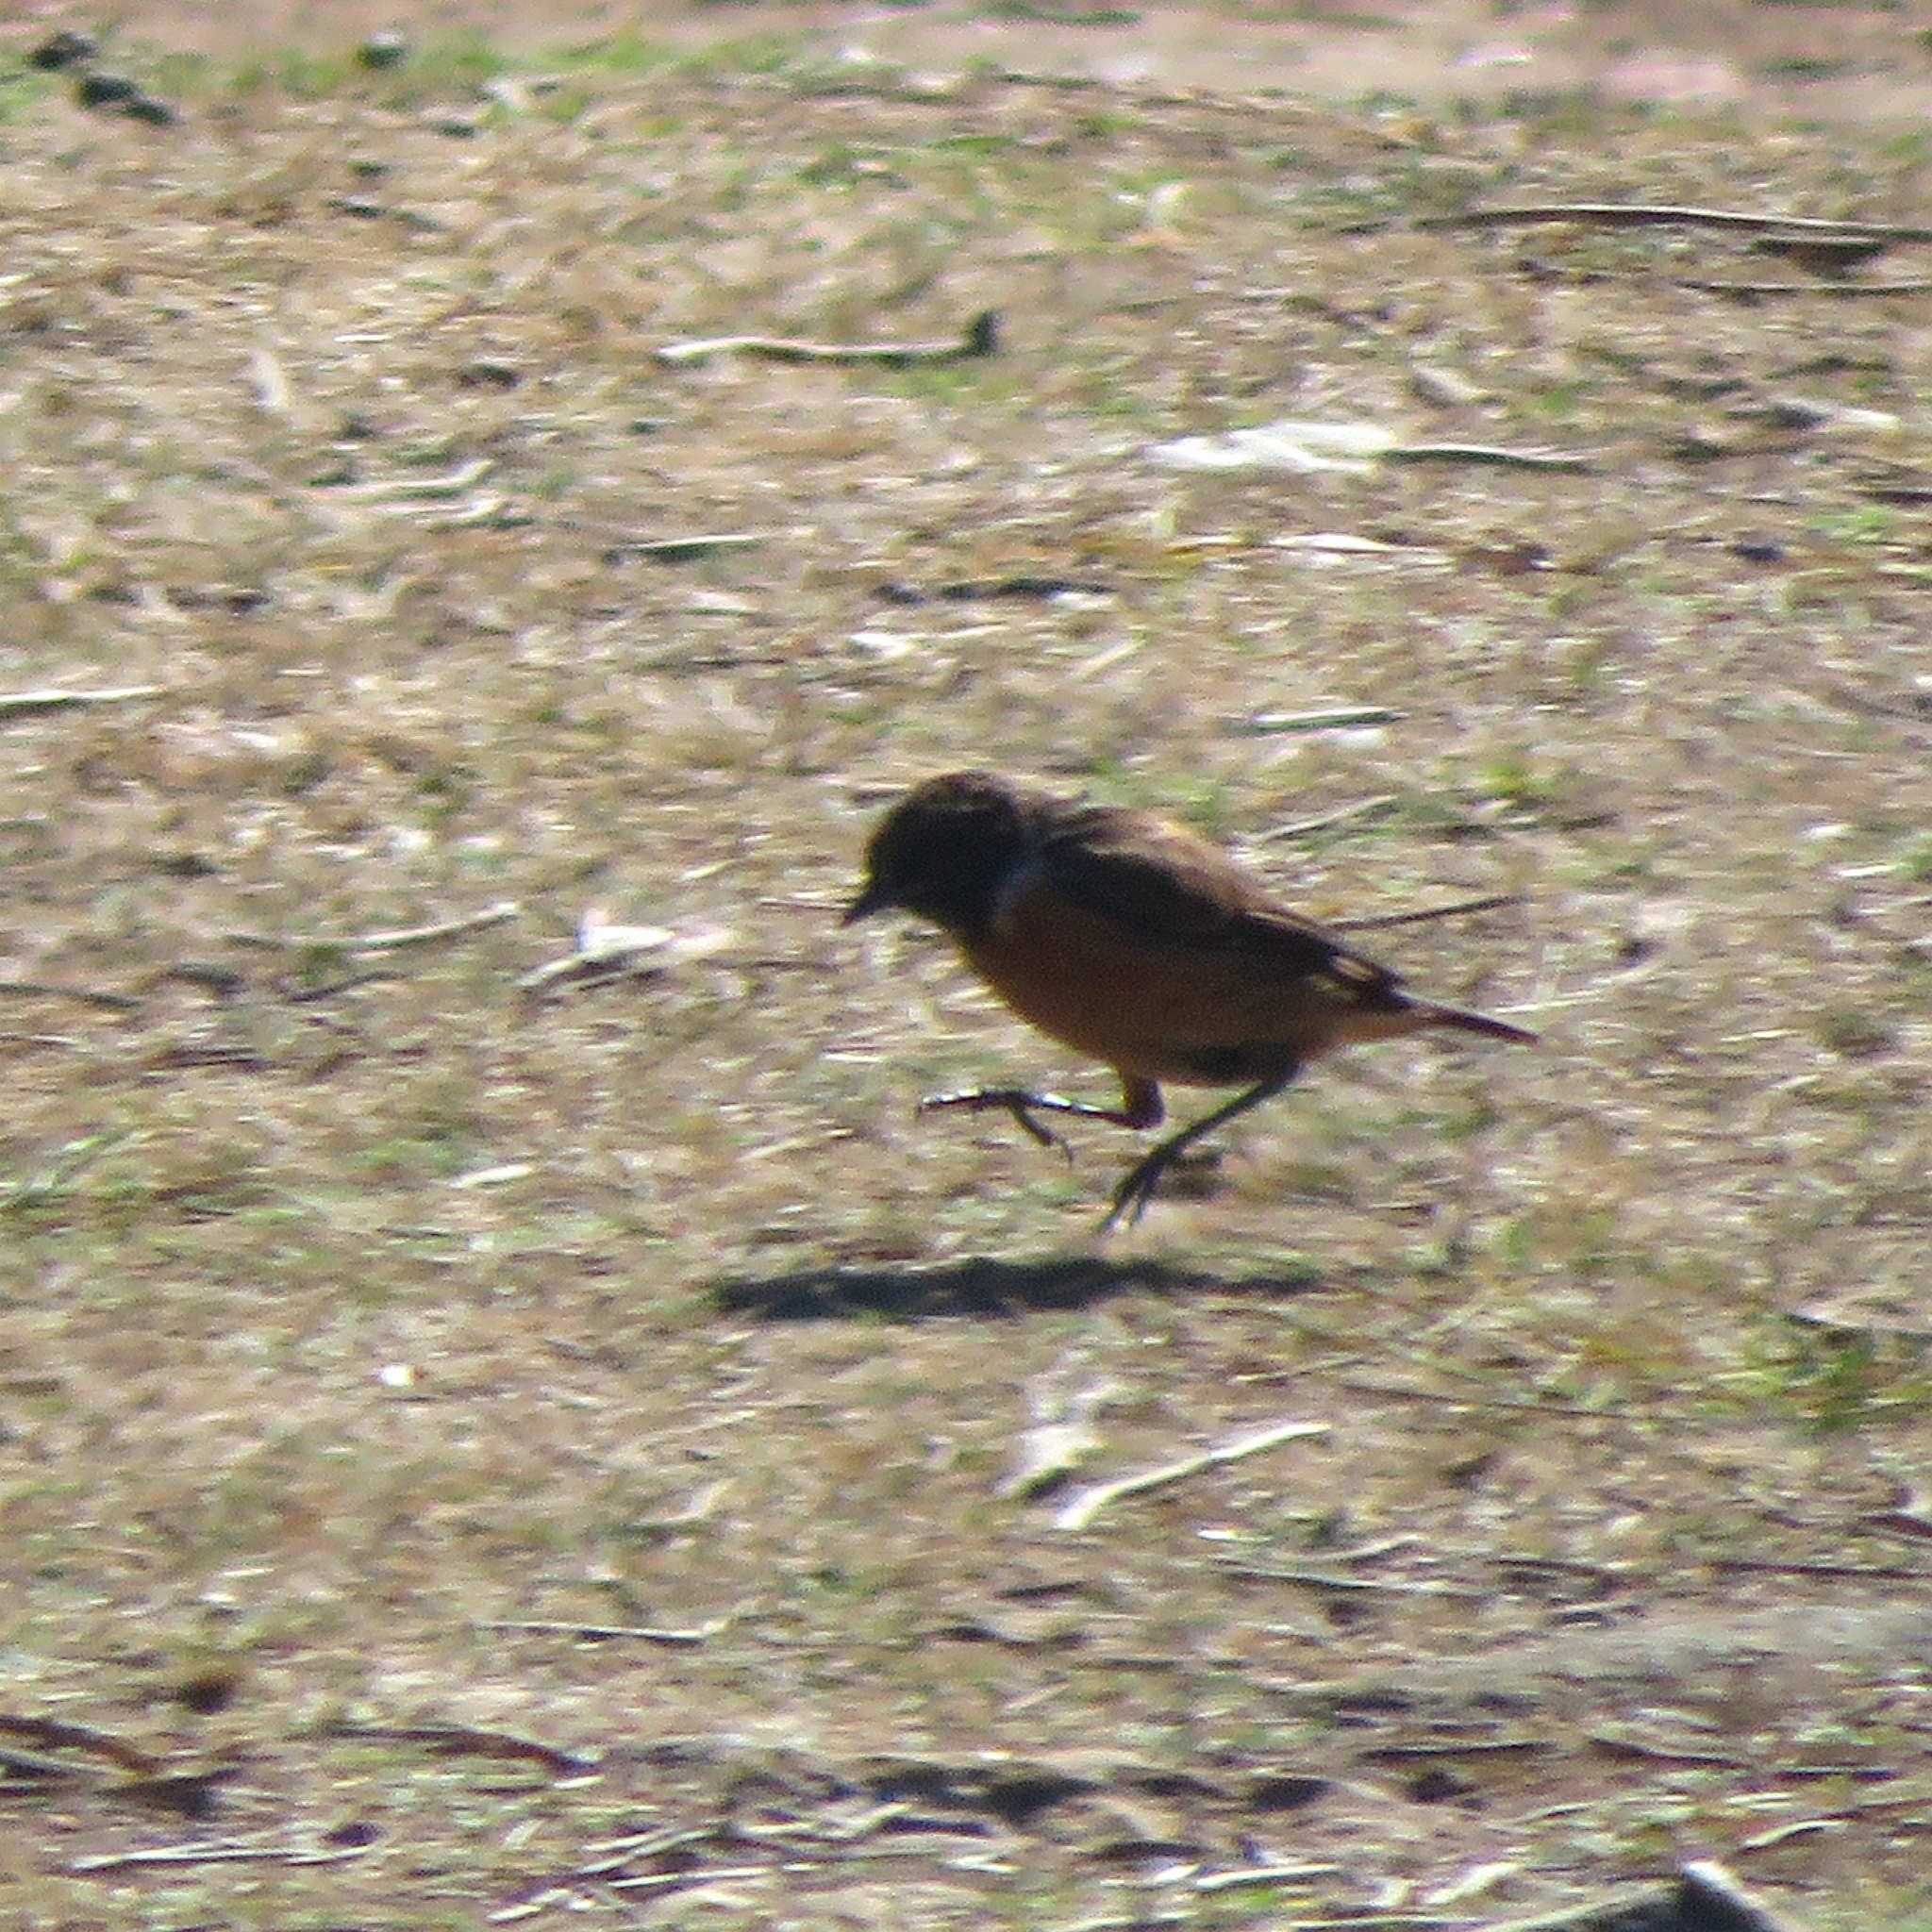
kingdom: Animalia
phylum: Chordata
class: Aves
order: Passeriformes
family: Muscicapidae
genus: Saxicola
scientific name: Saxicola rubicola
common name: European stonechat
